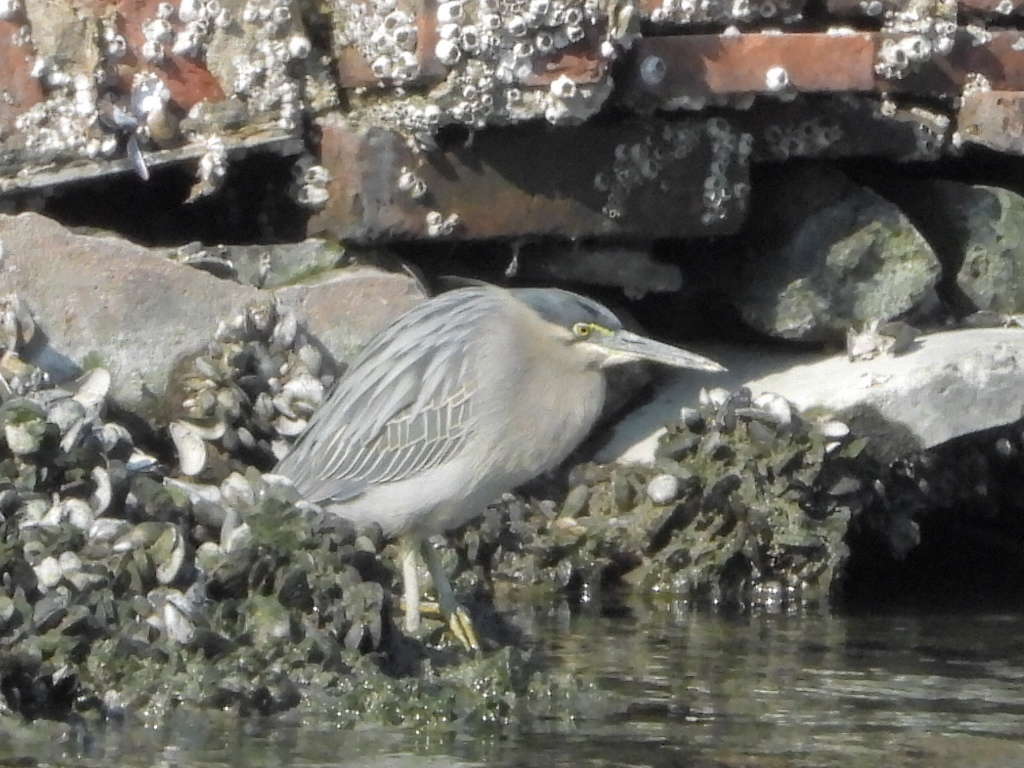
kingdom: Animalia
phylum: Chordata
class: Aves
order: Pelecaniformes
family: Ardeidae
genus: Butorides
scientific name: Butorides striata
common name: Striated heron
